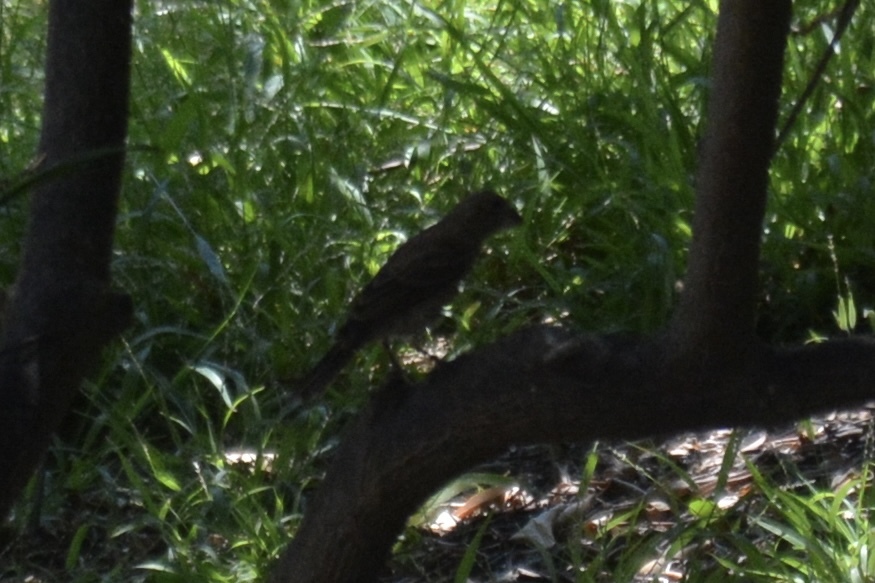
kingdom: Animalia
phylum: Chordata
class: Aves
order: Passeriformes
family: Fringillidae
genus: Haemorhous
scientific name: Haemorhous mexicanus
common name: House finch
